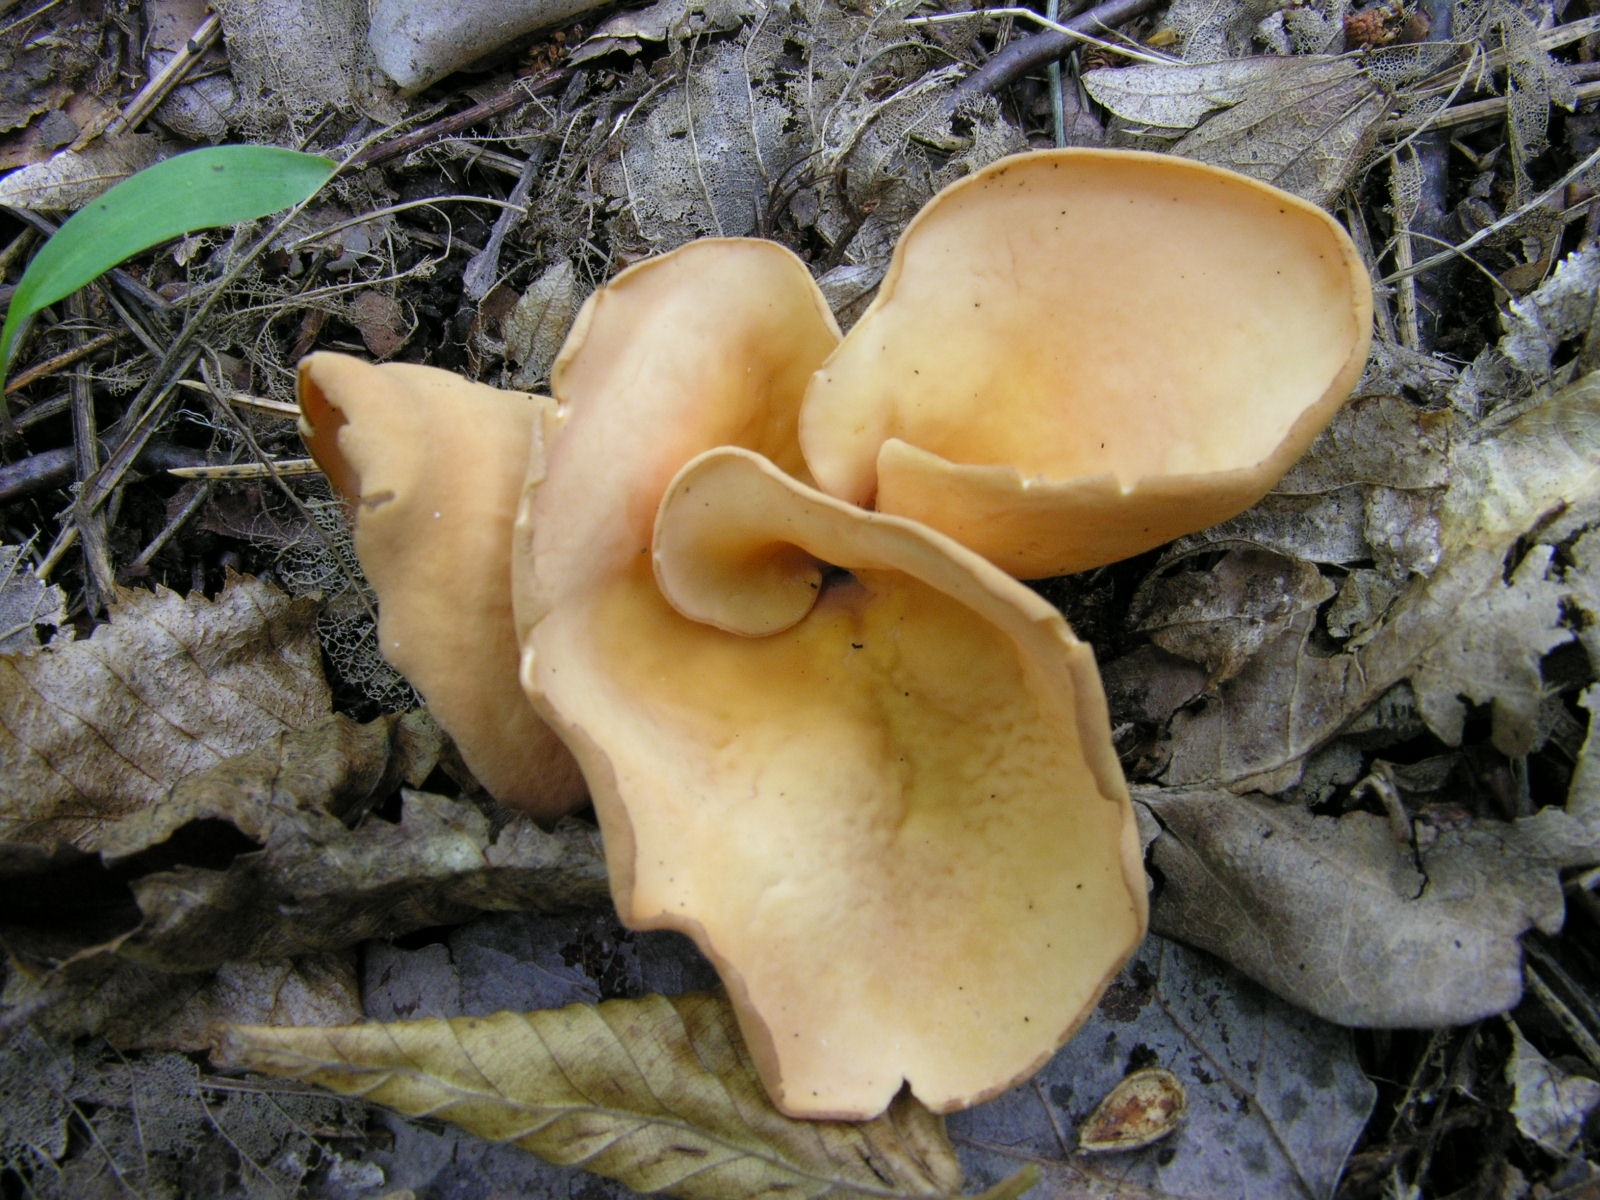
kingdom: Fungi
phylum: Ascomycota
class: Pezizomycetes
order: Pezizales
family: Otideaceae
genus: Otidea
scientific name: Otidea onotica
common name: Hare's ear
